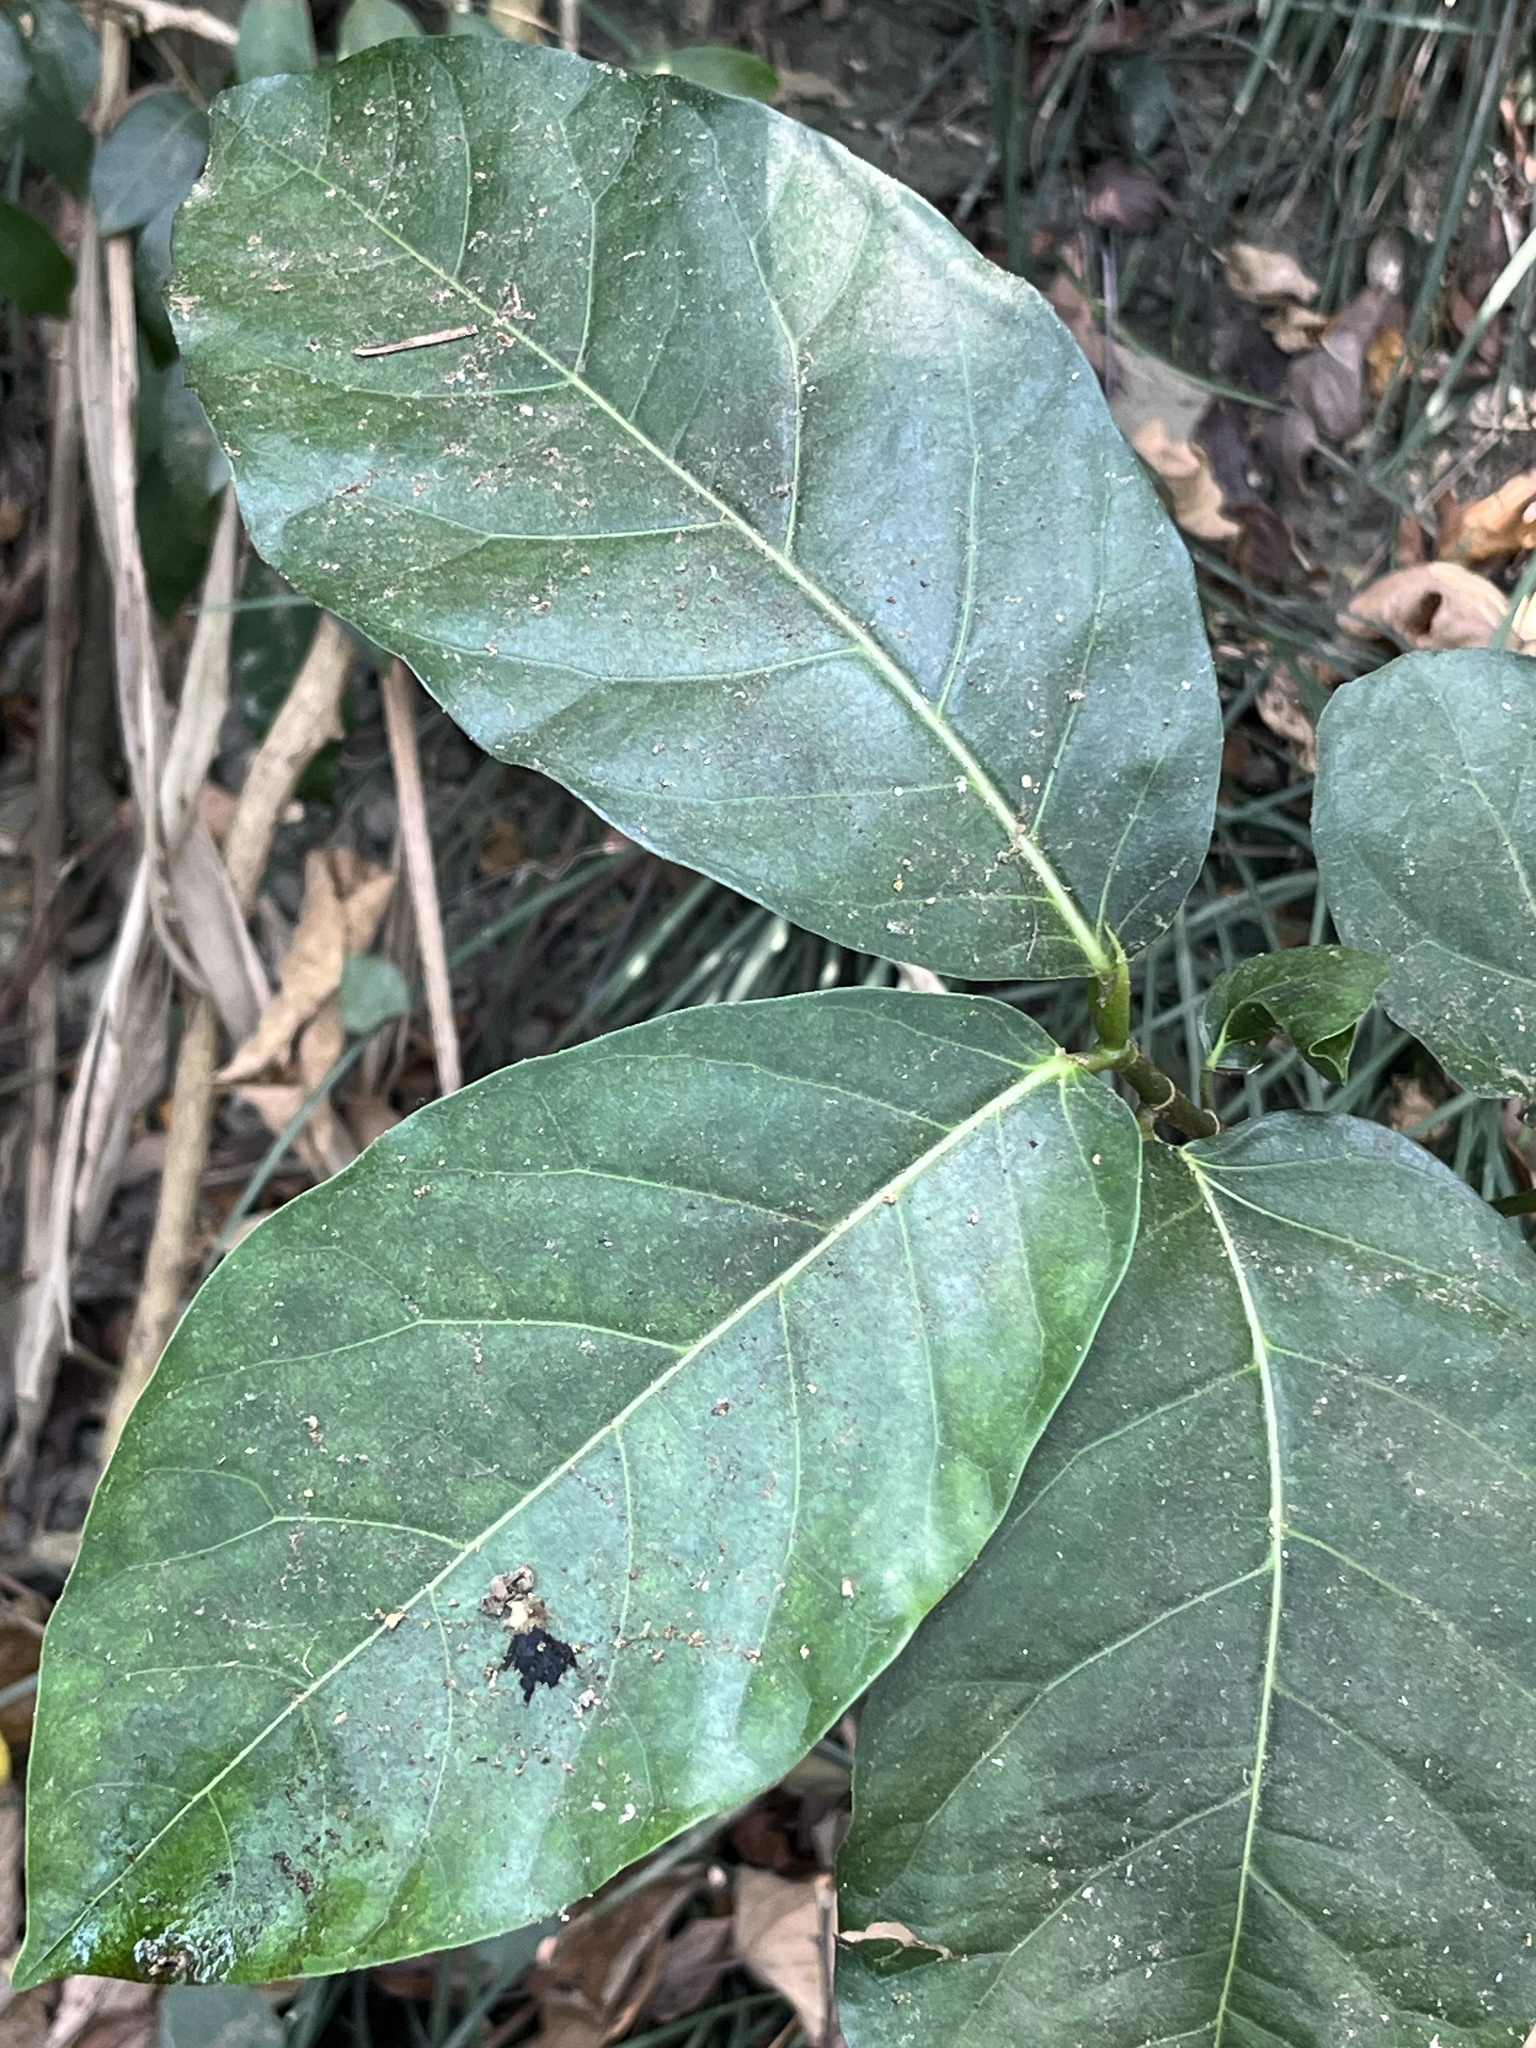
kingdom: Plantae
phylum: Tracheophyta
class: Magnoliopsida
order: Rosales
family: Moraceae
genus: Ficus
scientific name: Ficus septica
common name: Septic fig
